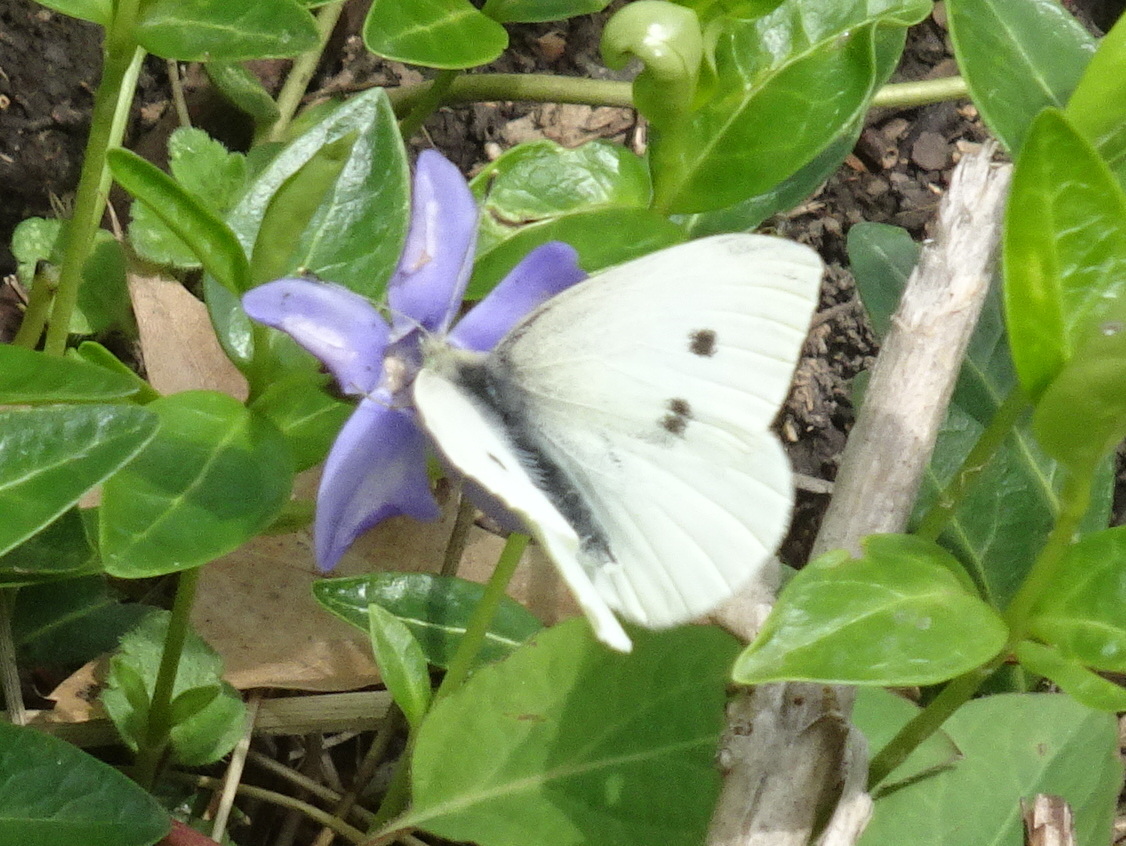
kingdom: Animalia
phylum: Arthropoda
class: Insecta
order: Lepidoptera
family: Pieridae
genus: Pieris
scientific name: Pieris rapae
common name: Small white
